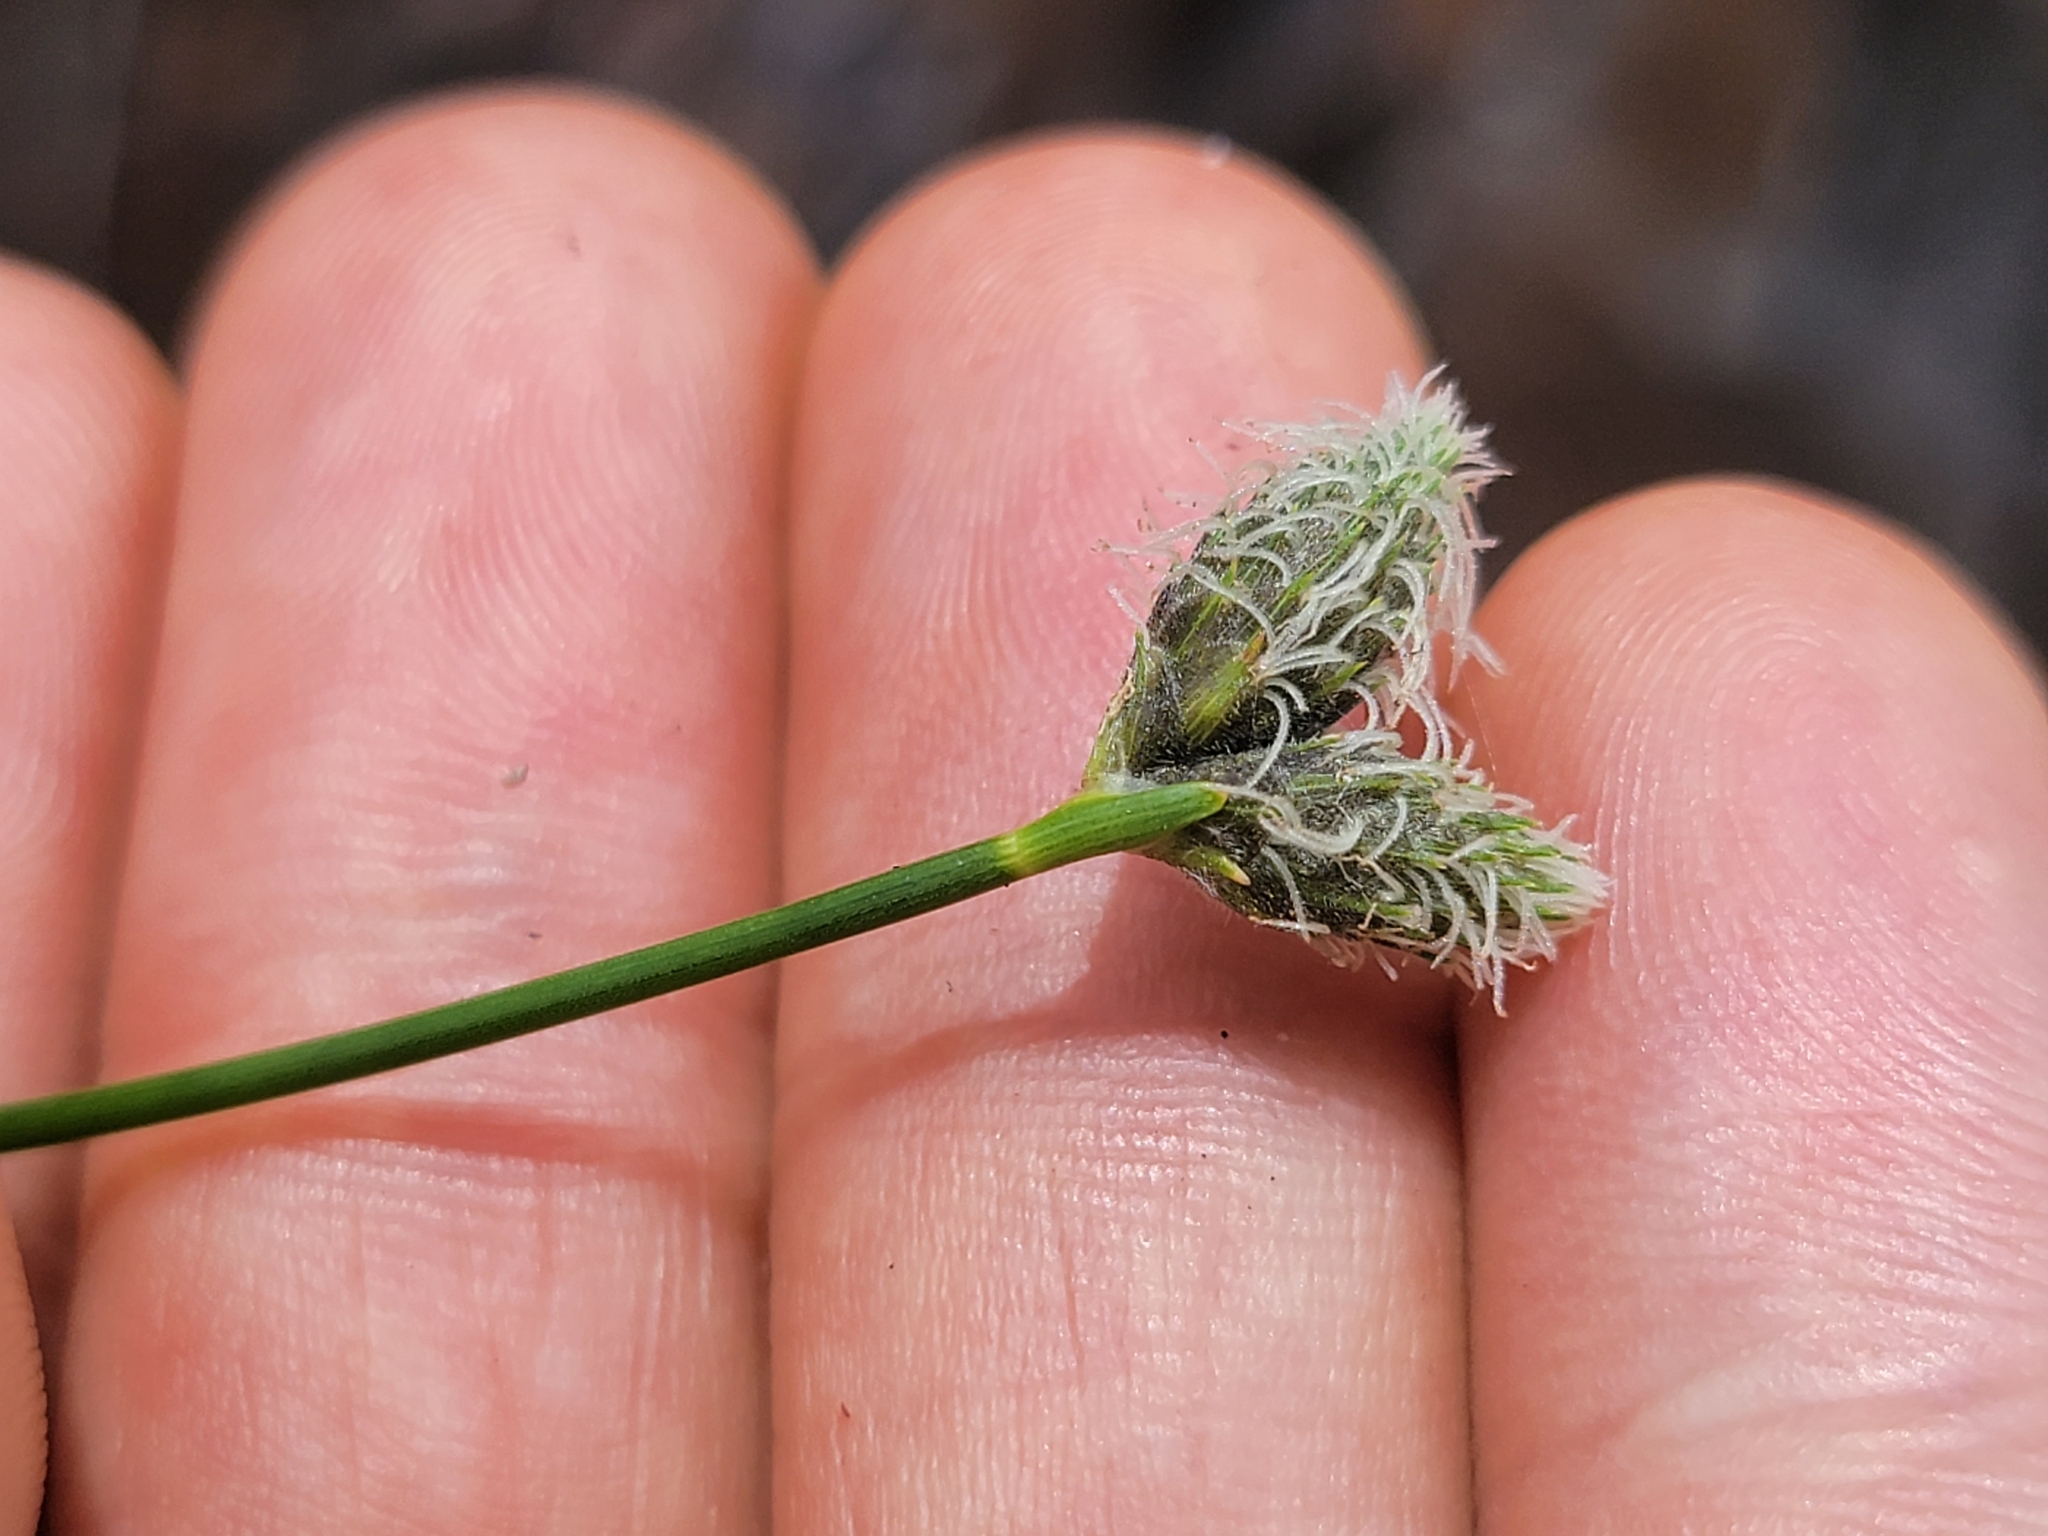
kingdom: Plantae
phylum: Tracheophyta
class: Liliopsida
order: Poales
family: Cyperaceae
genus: Fuirena
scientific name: Fuirena scirpoidea
